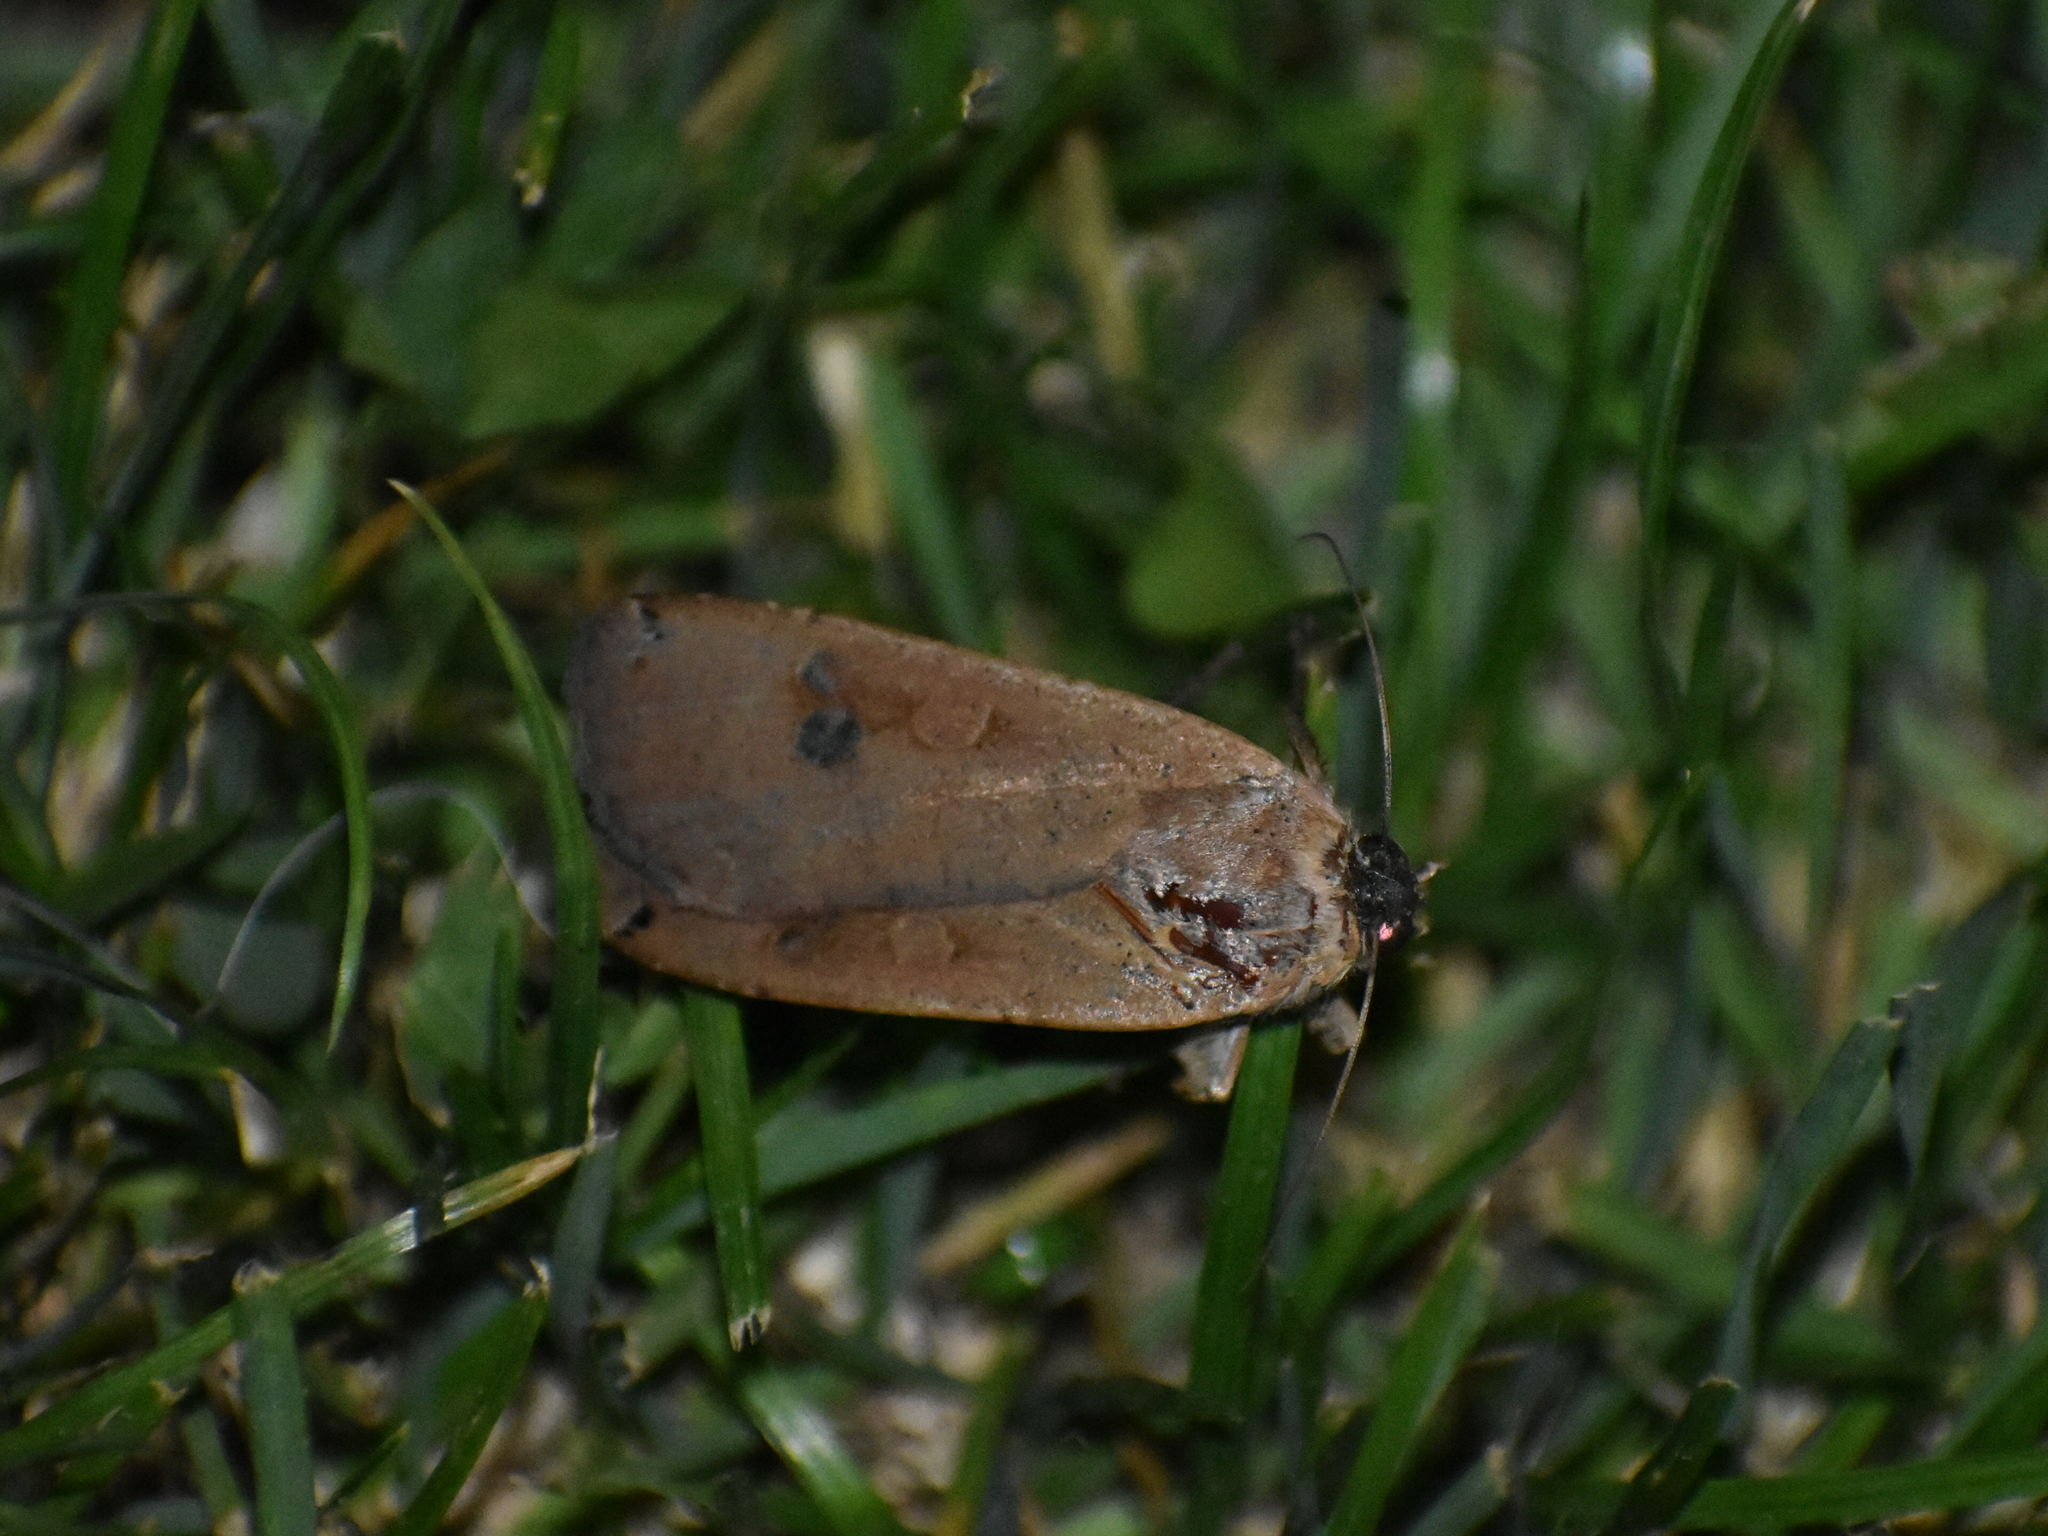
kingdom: Animalia
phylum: Arthropoda
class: Insecta
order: Lepidoptera
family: Noctuidae
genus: Noctua
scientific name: Noctua pronuba
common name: Large yellow underwing
